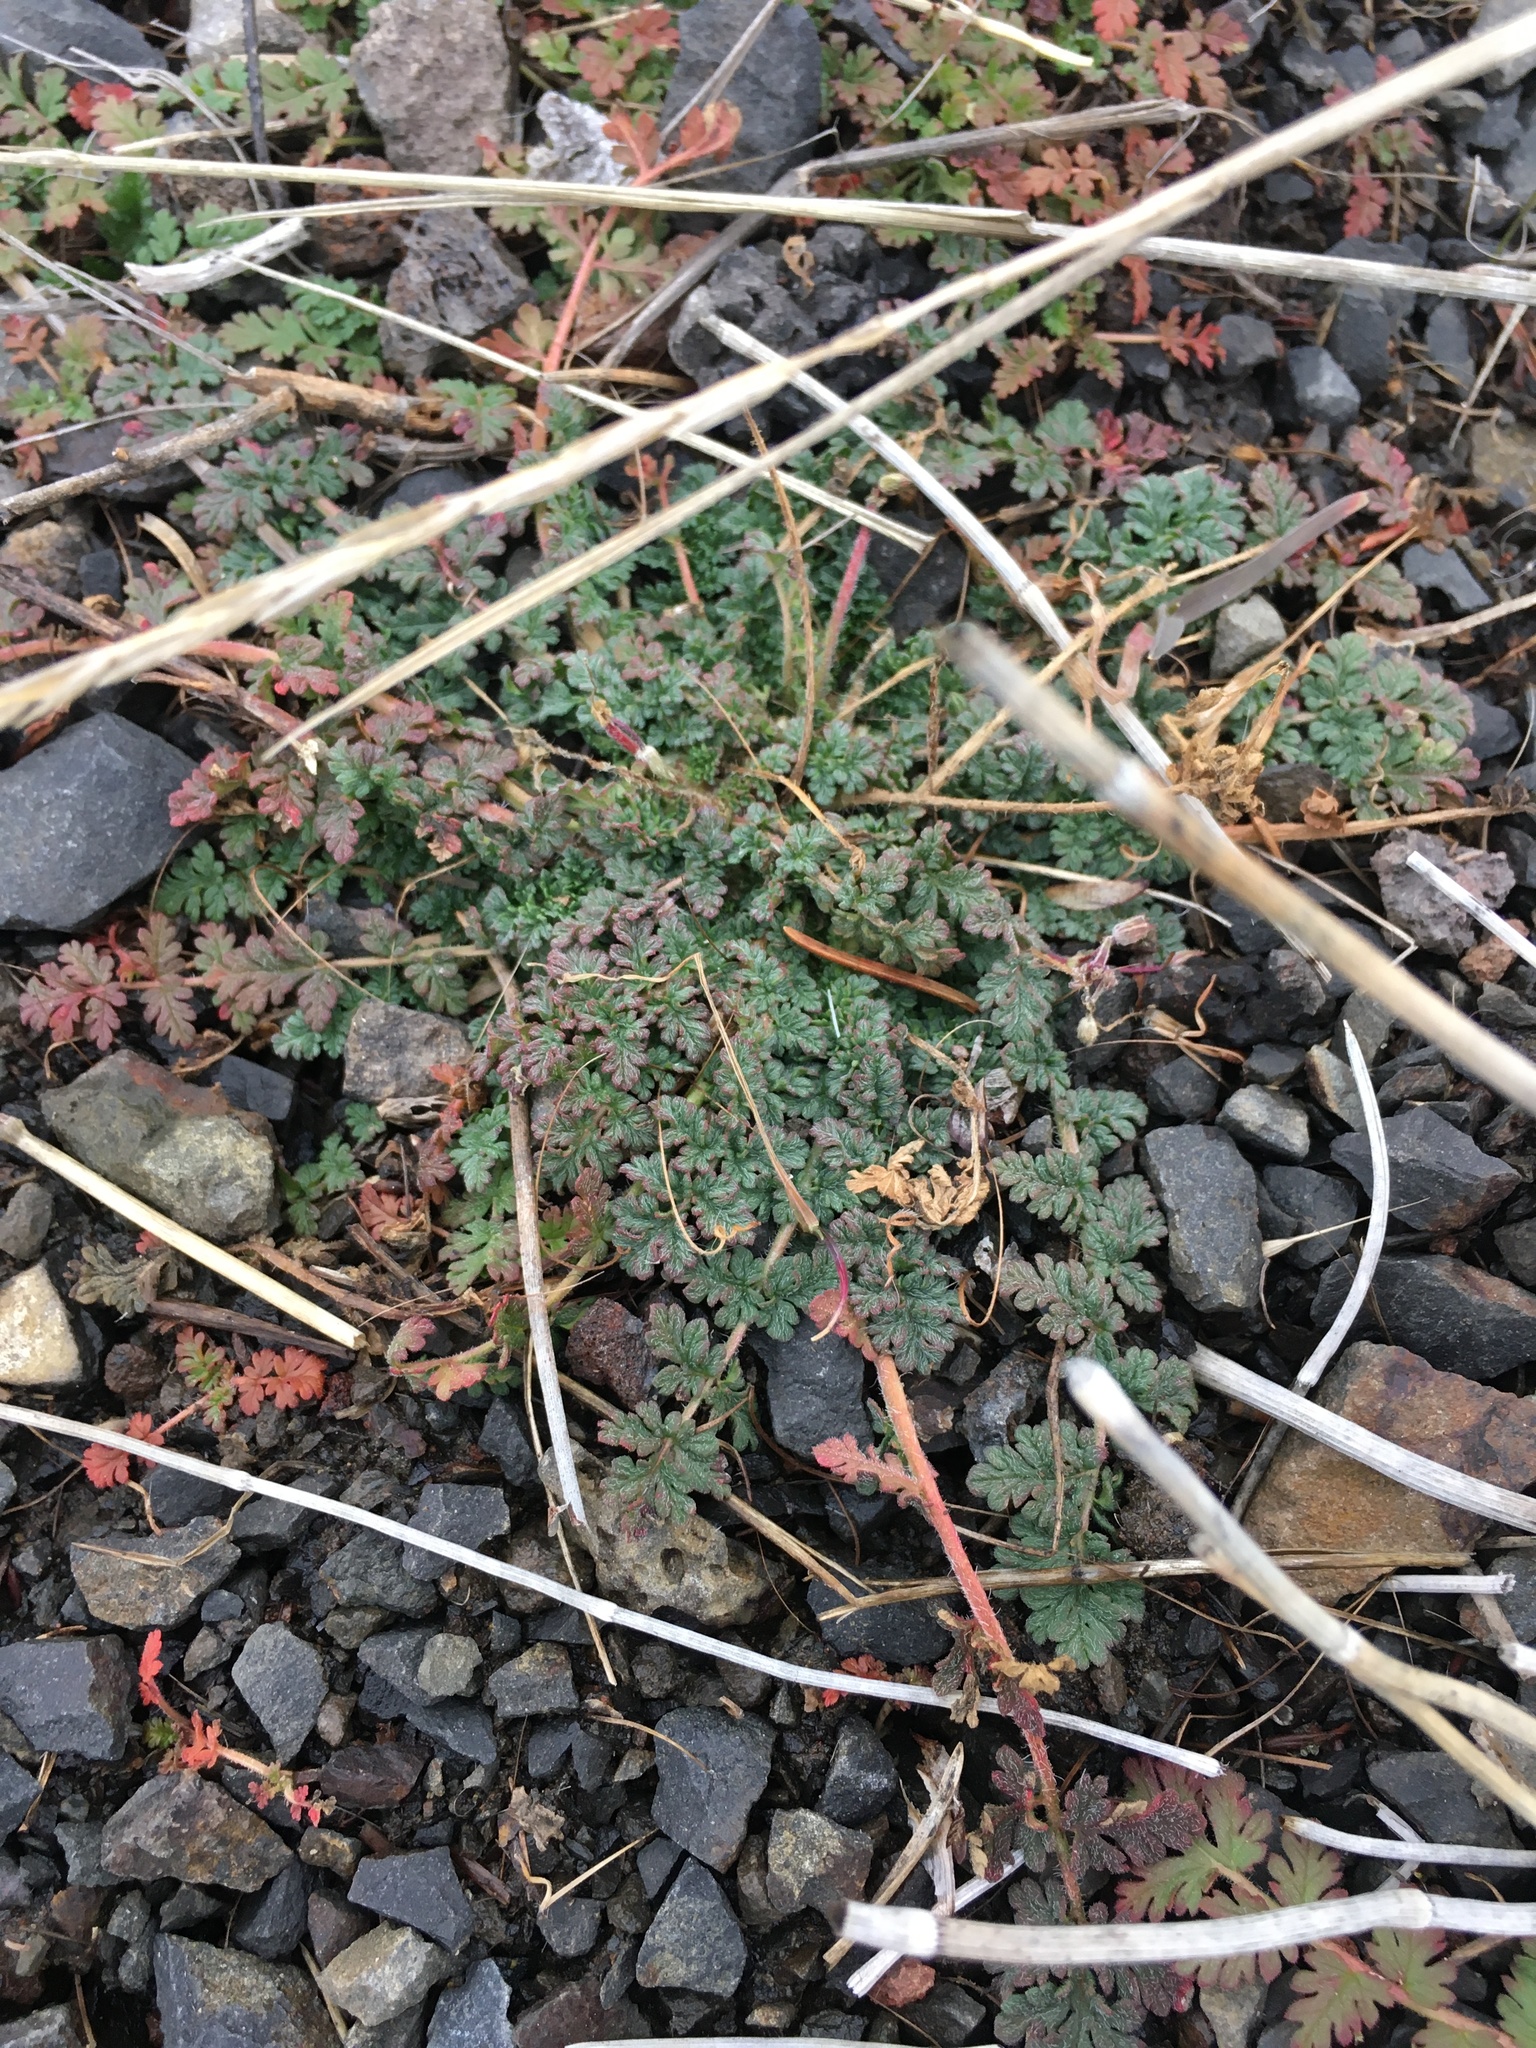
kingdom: Plantae
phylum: Tracheophyta
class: Magnoliopsida
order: Geraniales
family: Geraniaceae
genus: Erodium
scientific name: Erodium cicutarium
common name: Common stork's-bill
